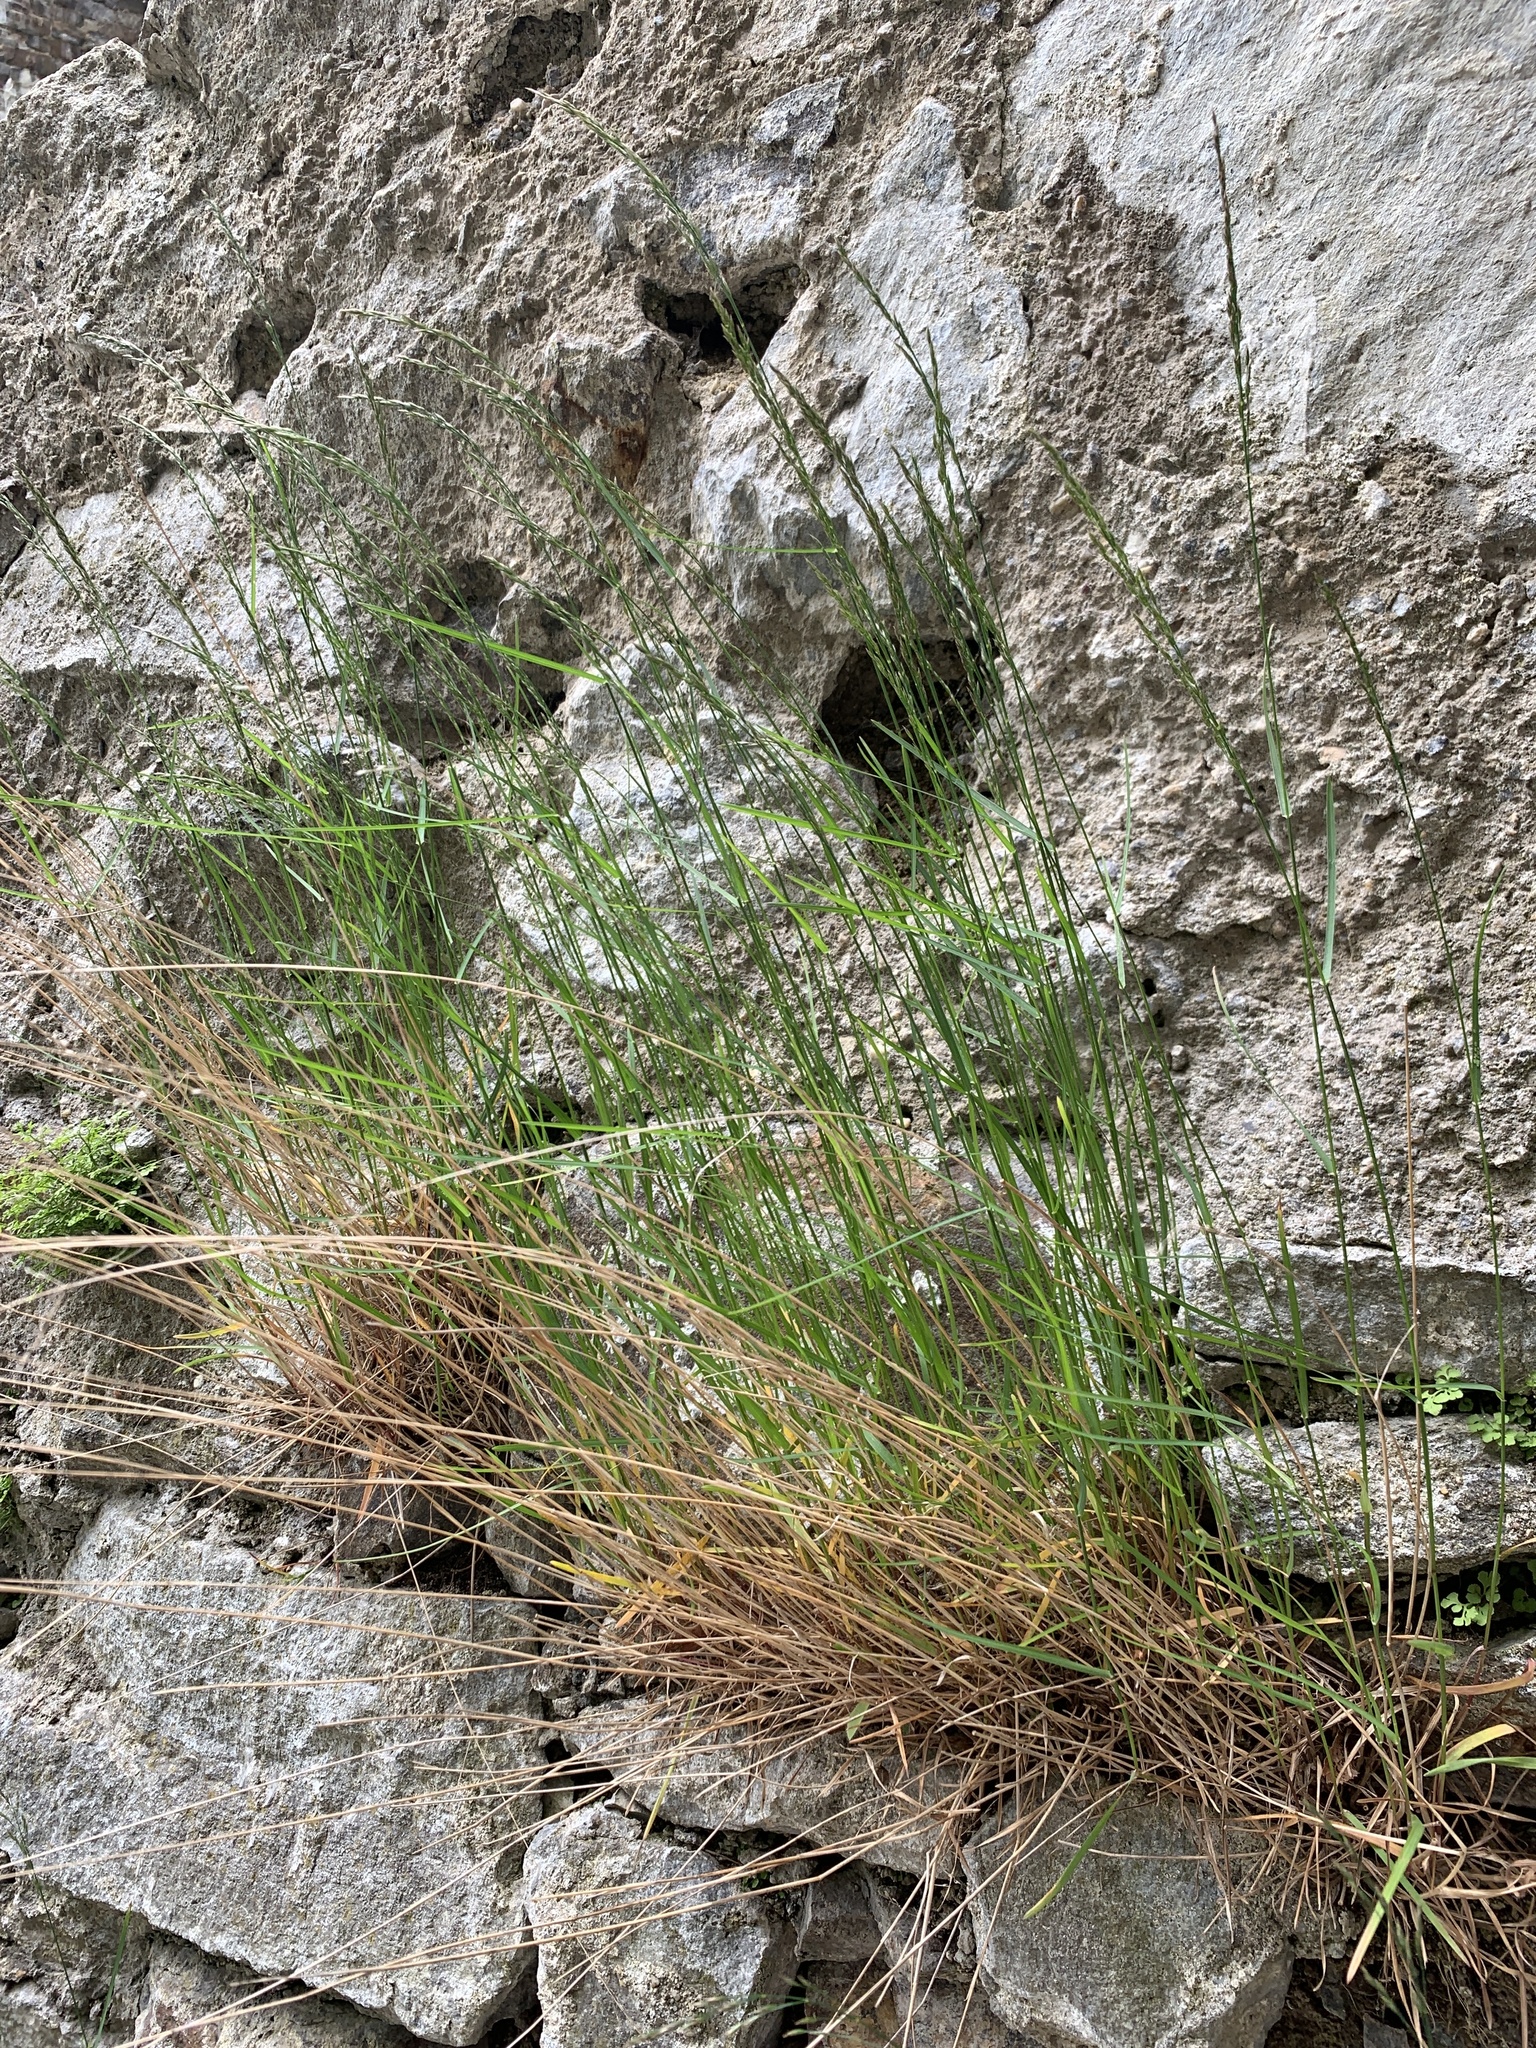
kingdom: Plantae
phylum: Tracheophyta
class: Liliopsida
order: Poales
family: Poaceae
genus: Poa
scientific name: Poa nemoralis
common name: Wood bluegrass
